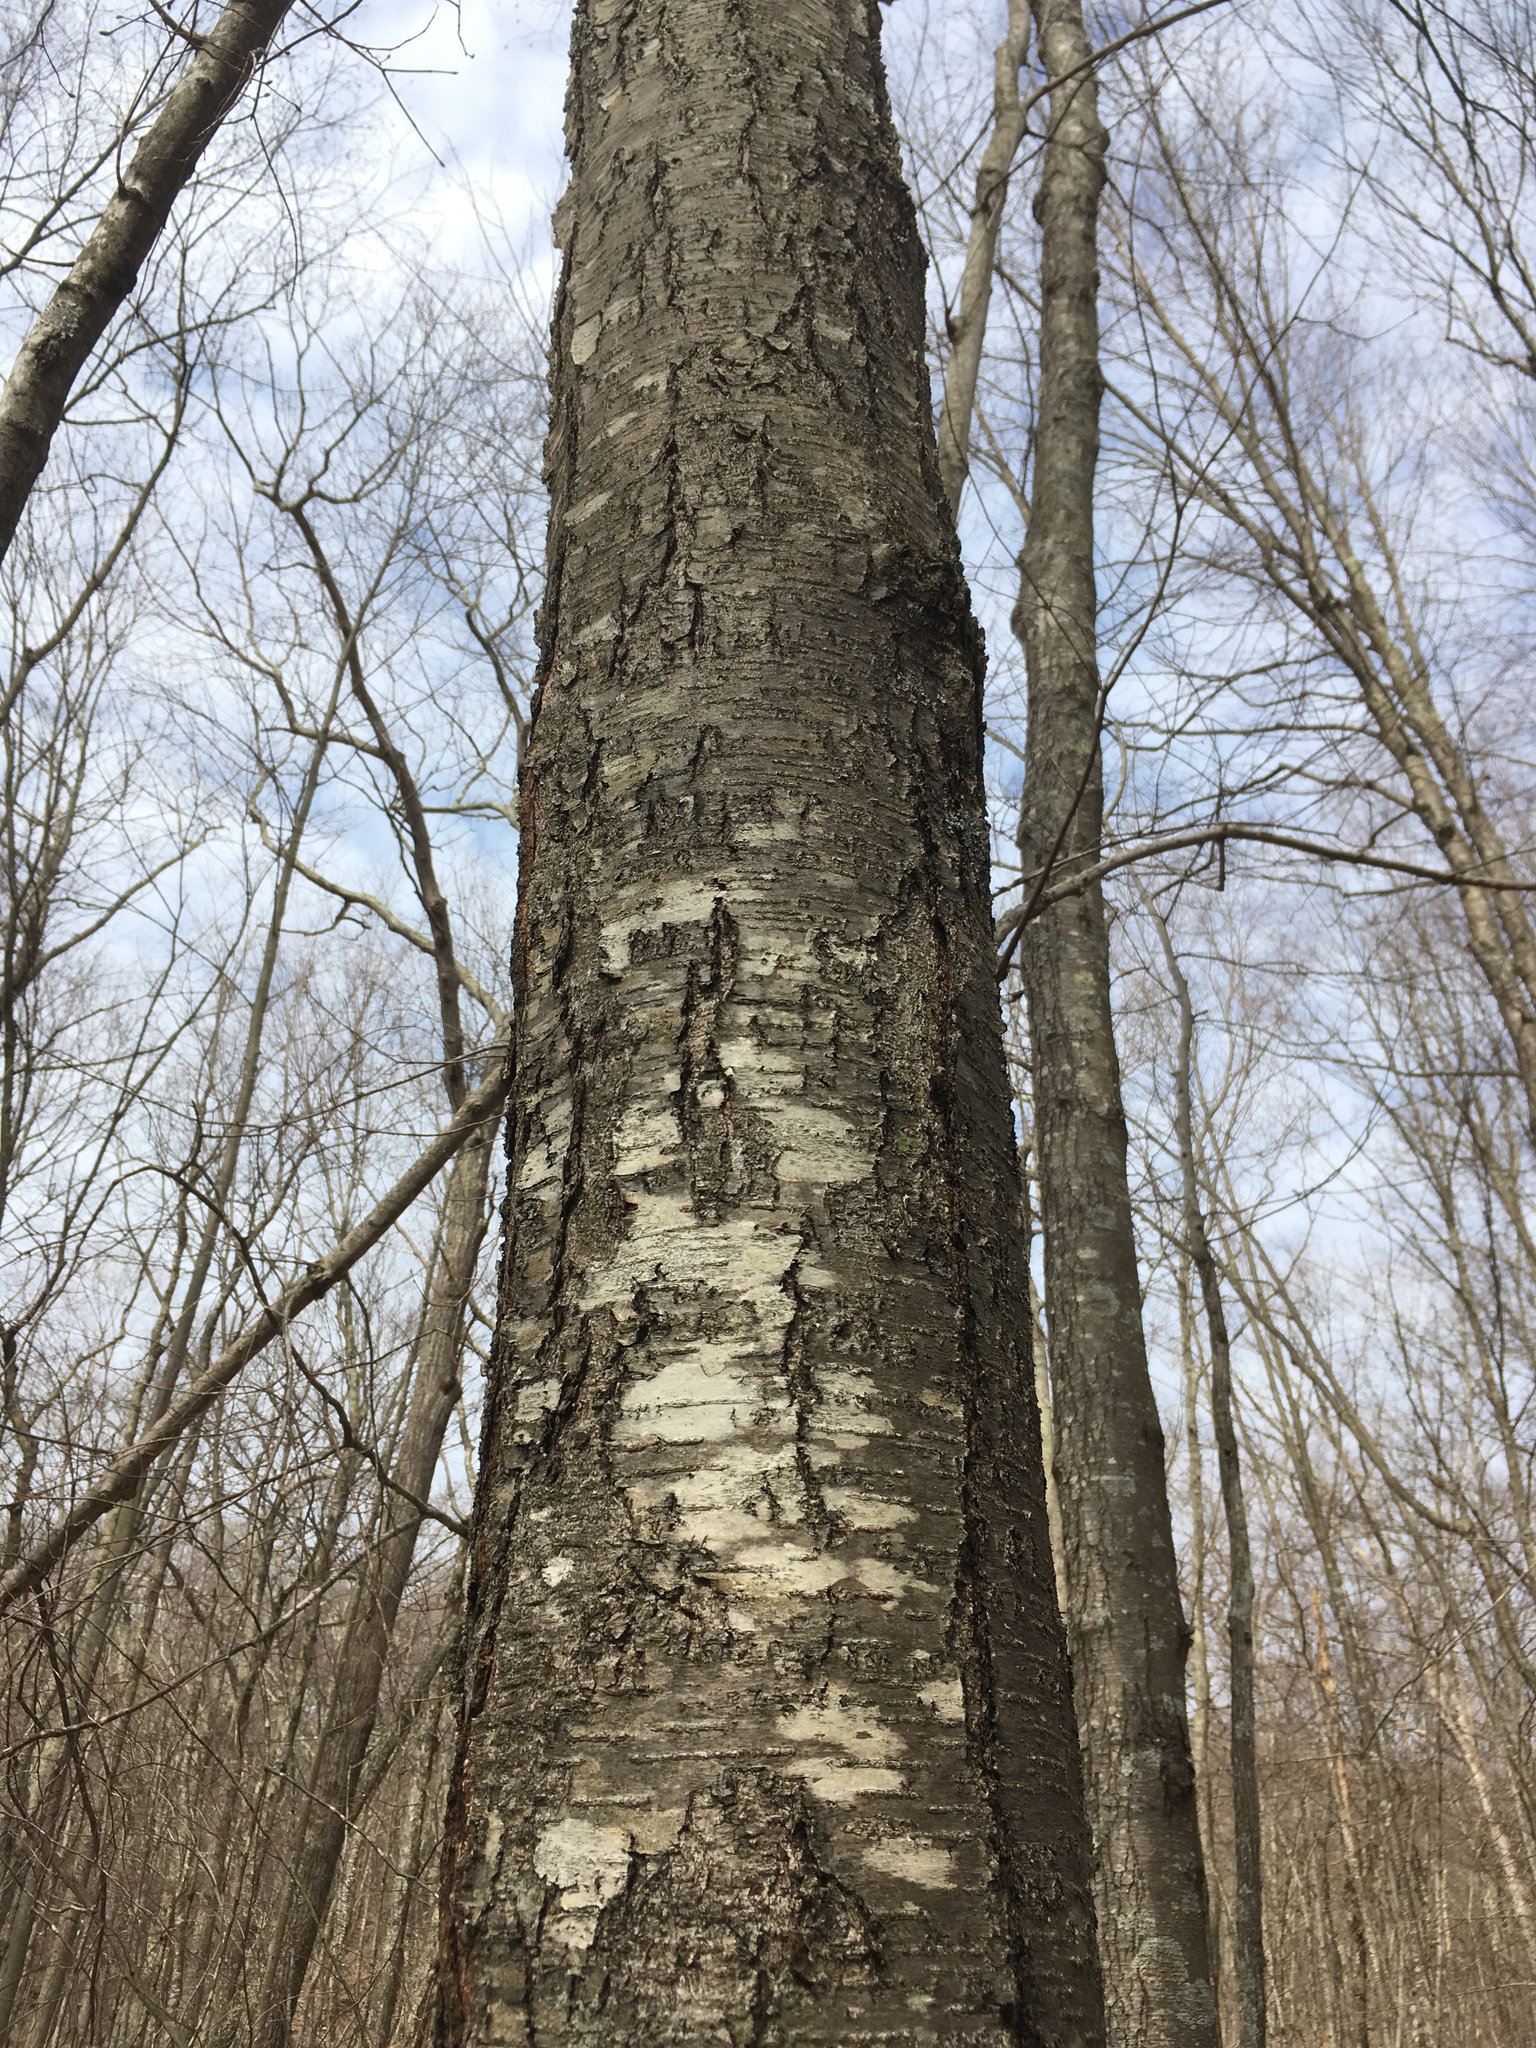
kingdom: Plantae
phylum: Tracheophyta
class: Magnoliopsida
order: Fagales
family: Betulaceae
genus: Betula
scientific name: Betula lenta
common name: Black birch
